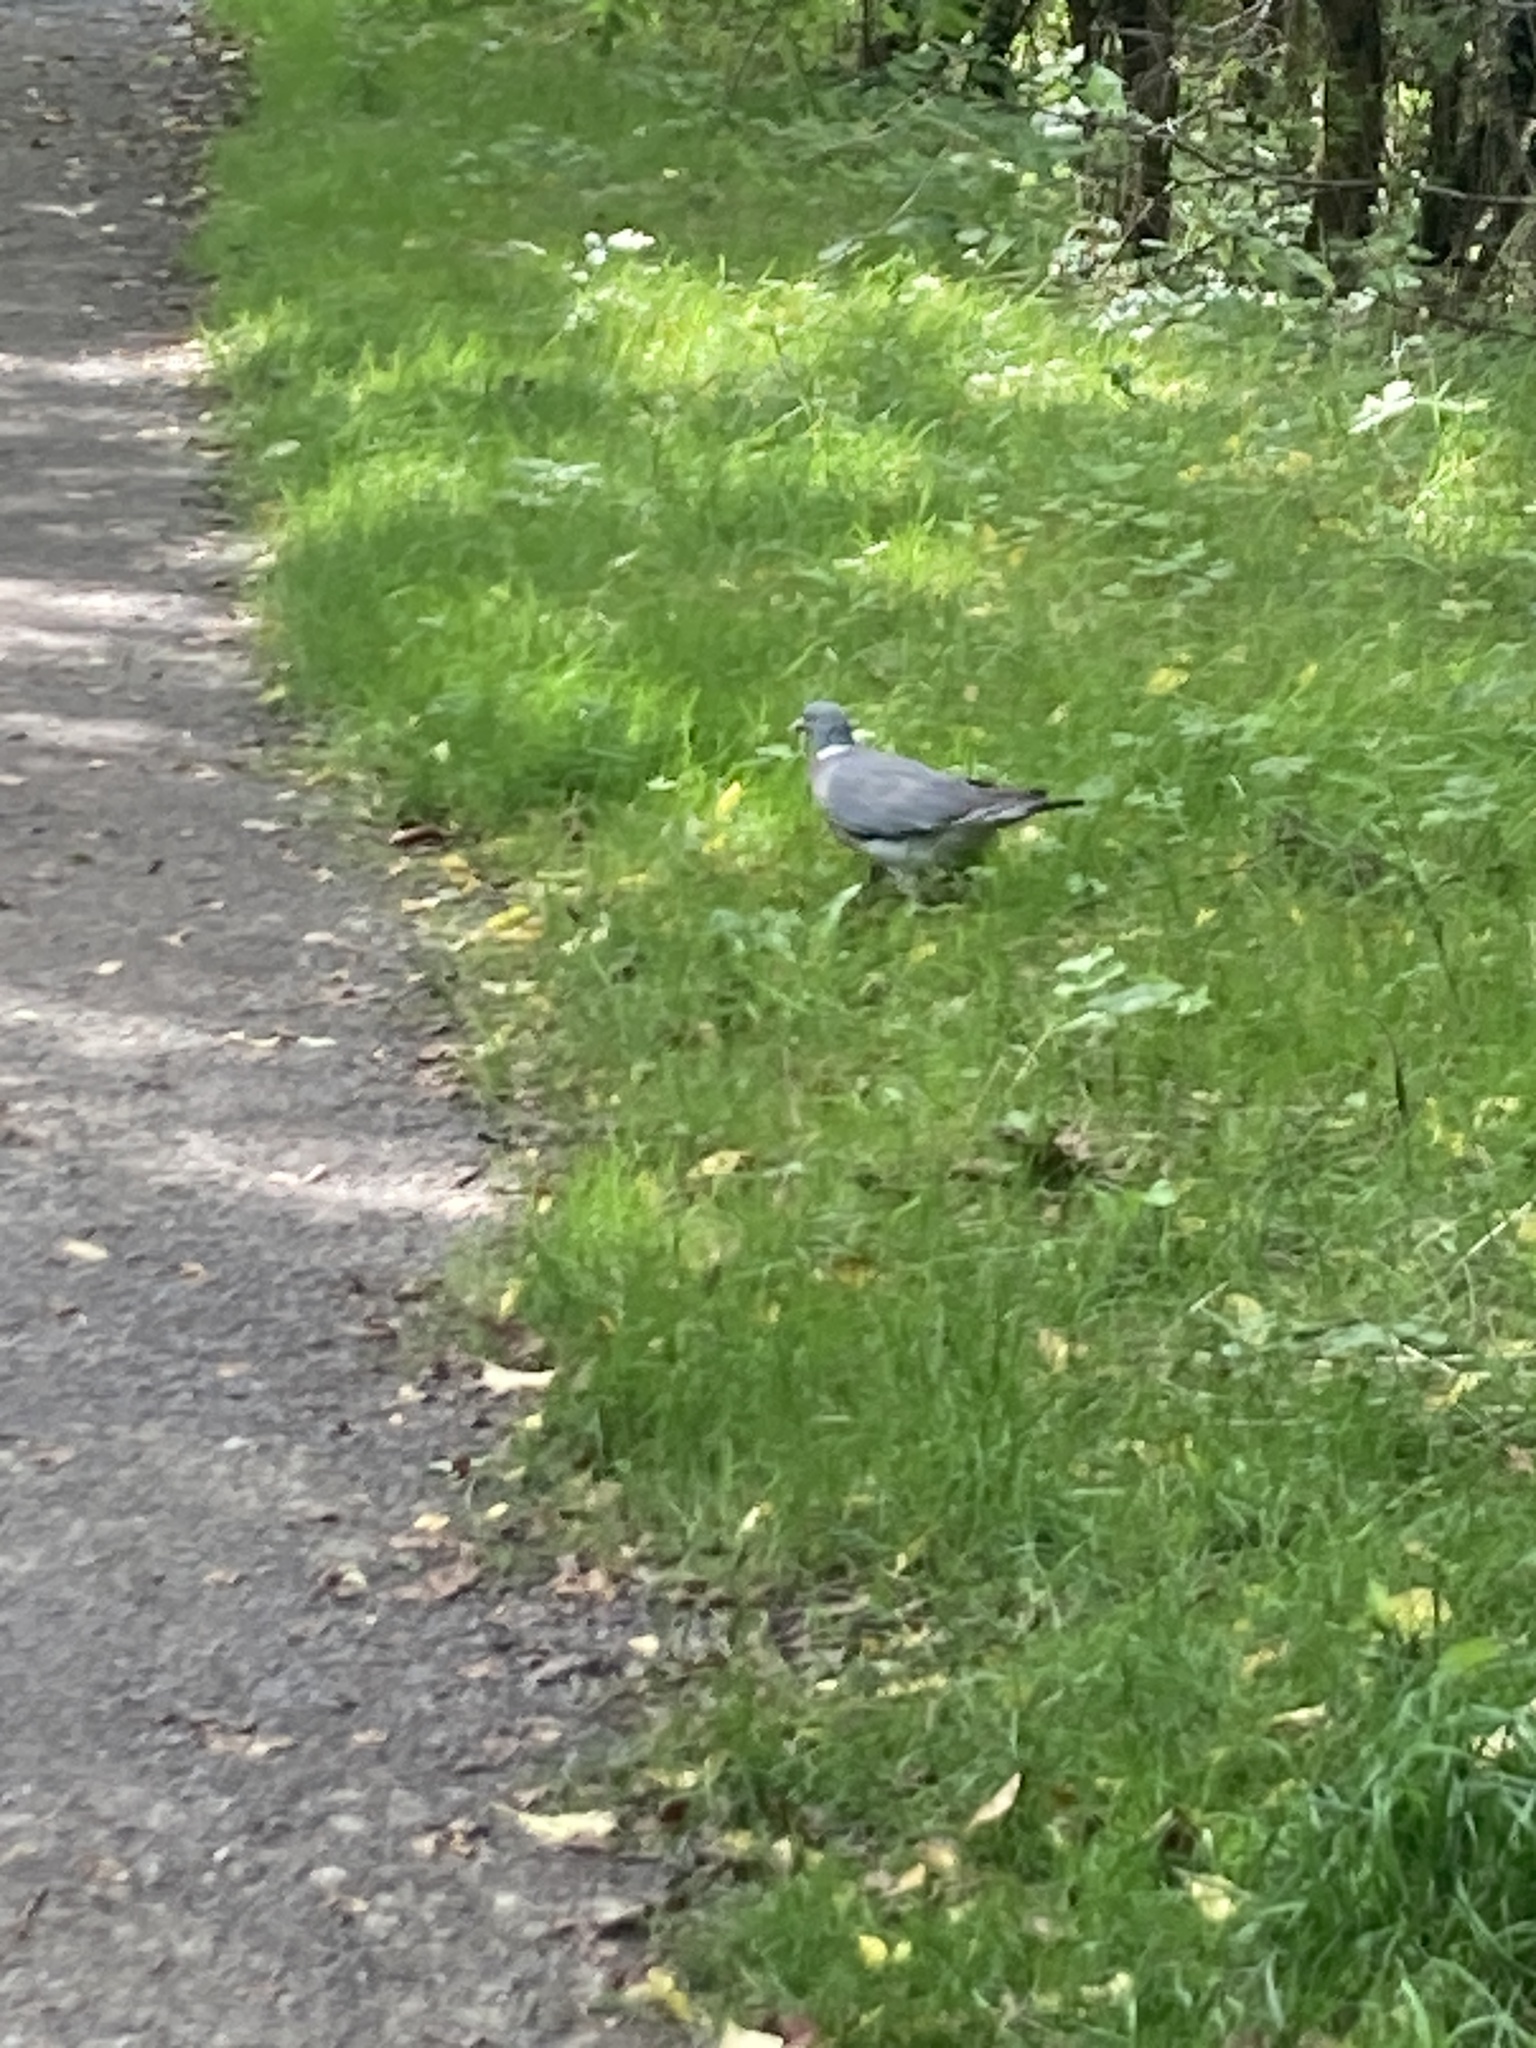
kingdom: Animalia
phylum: Chordata
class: Aves
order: Columbiformes
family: Columbidae
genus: Columba
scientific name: Columba palumbus
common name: Common wood pigeon
